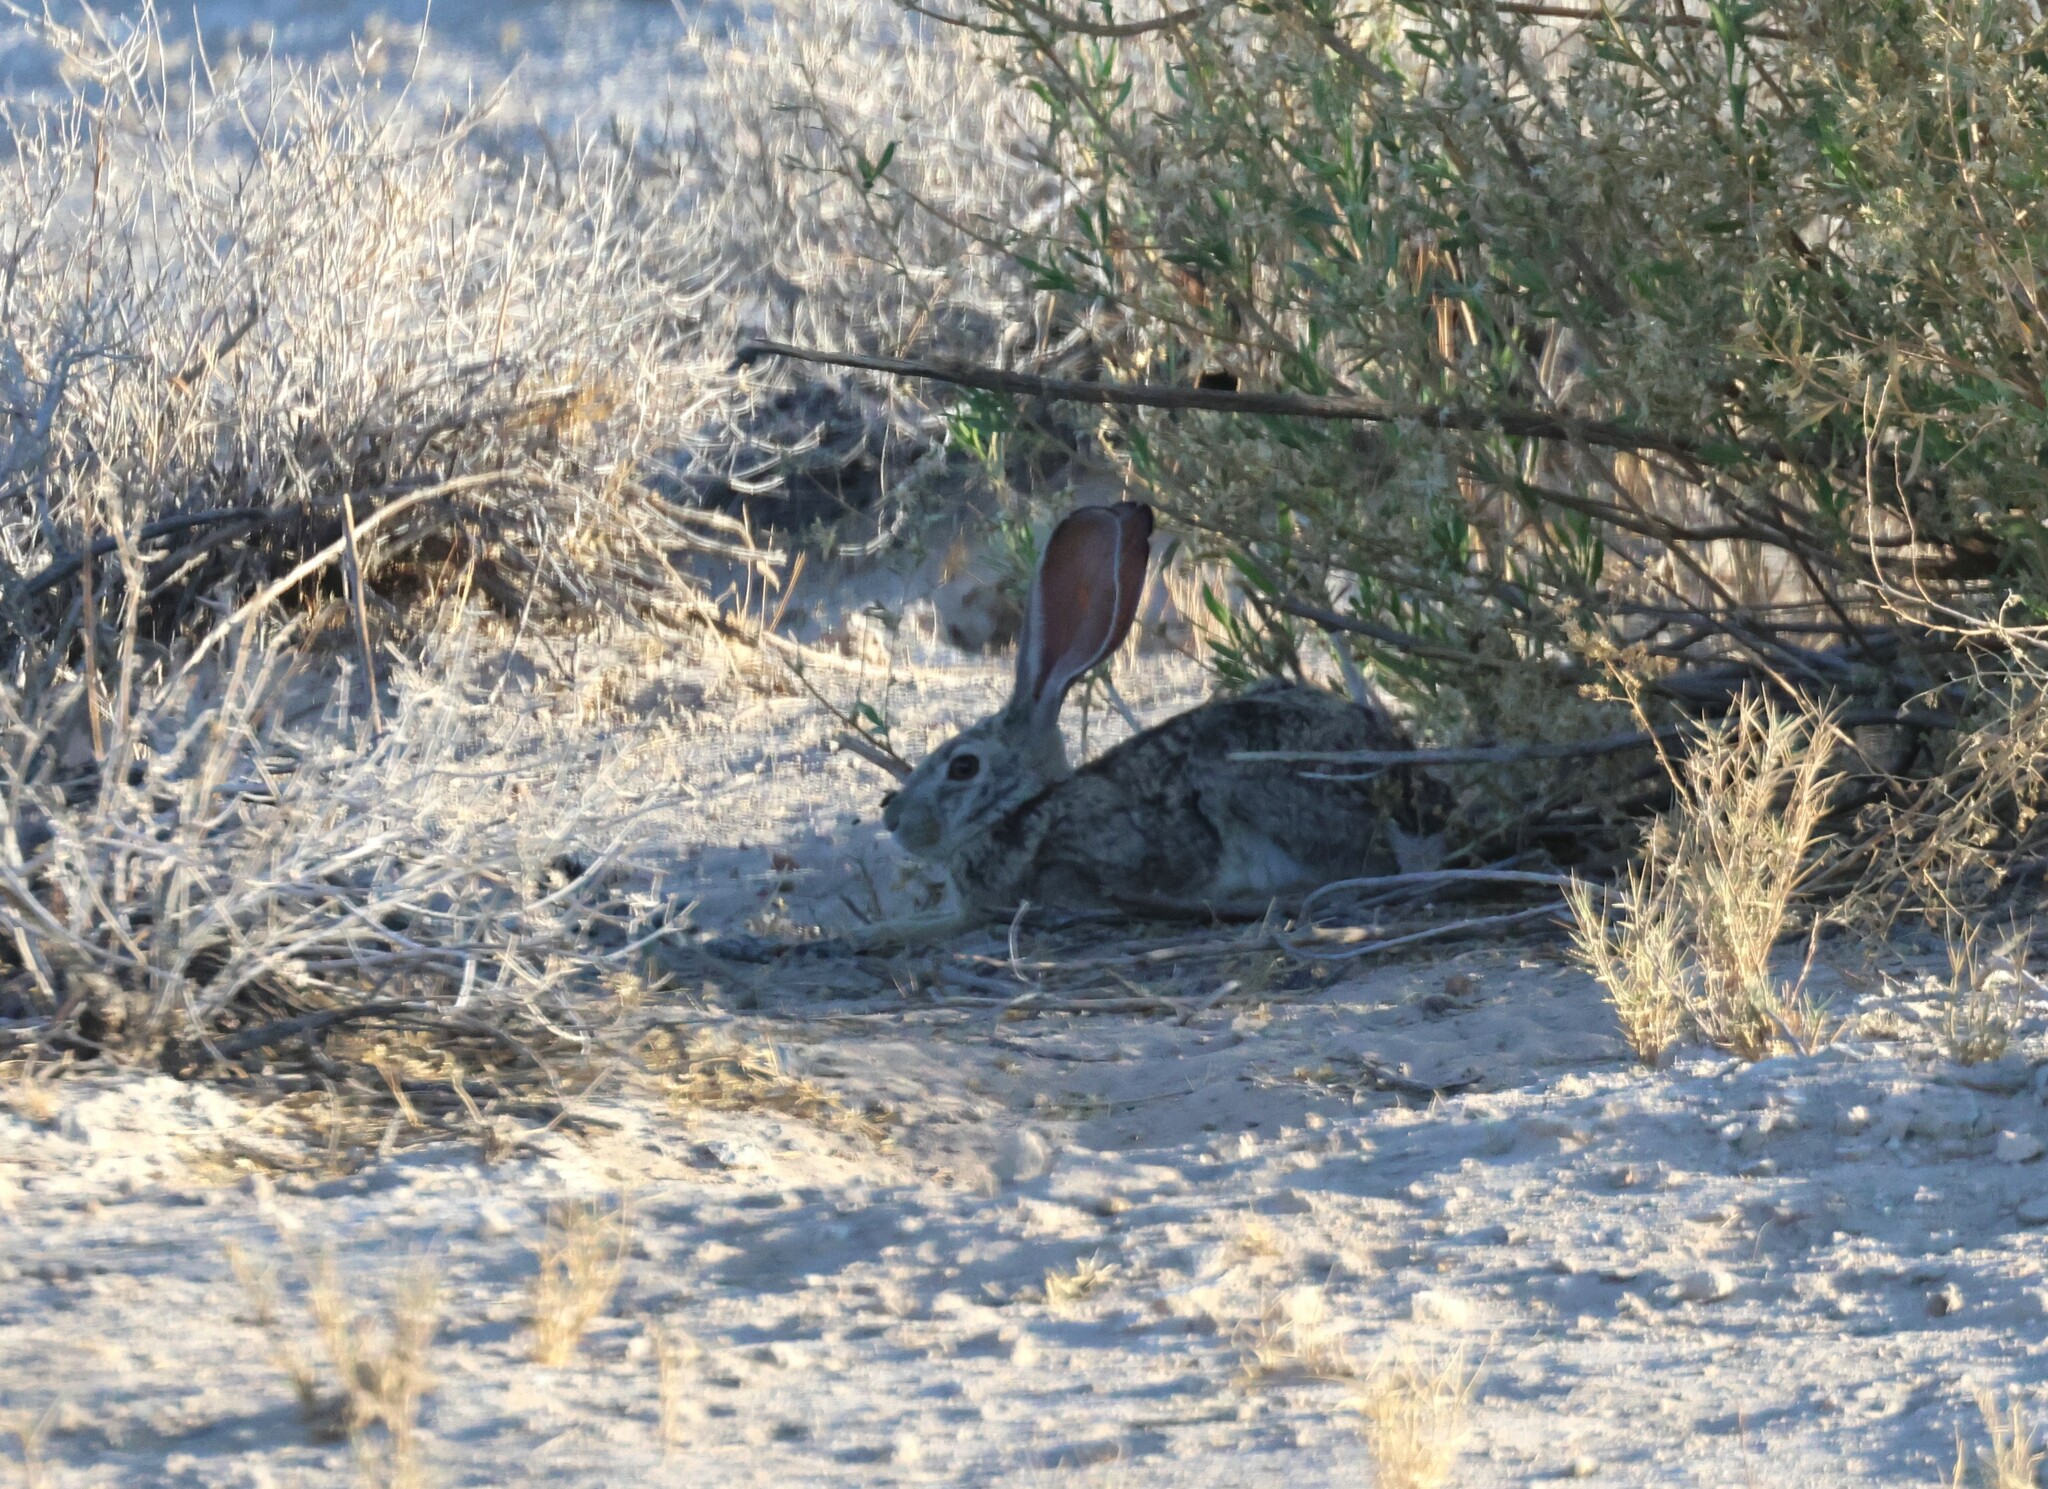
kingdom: Animalia
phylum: Chordata
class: Mammalia
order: Lagomorpha
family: Leporidae
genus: Lepus
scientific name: Lepus saxatilis
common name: Scrub hare
